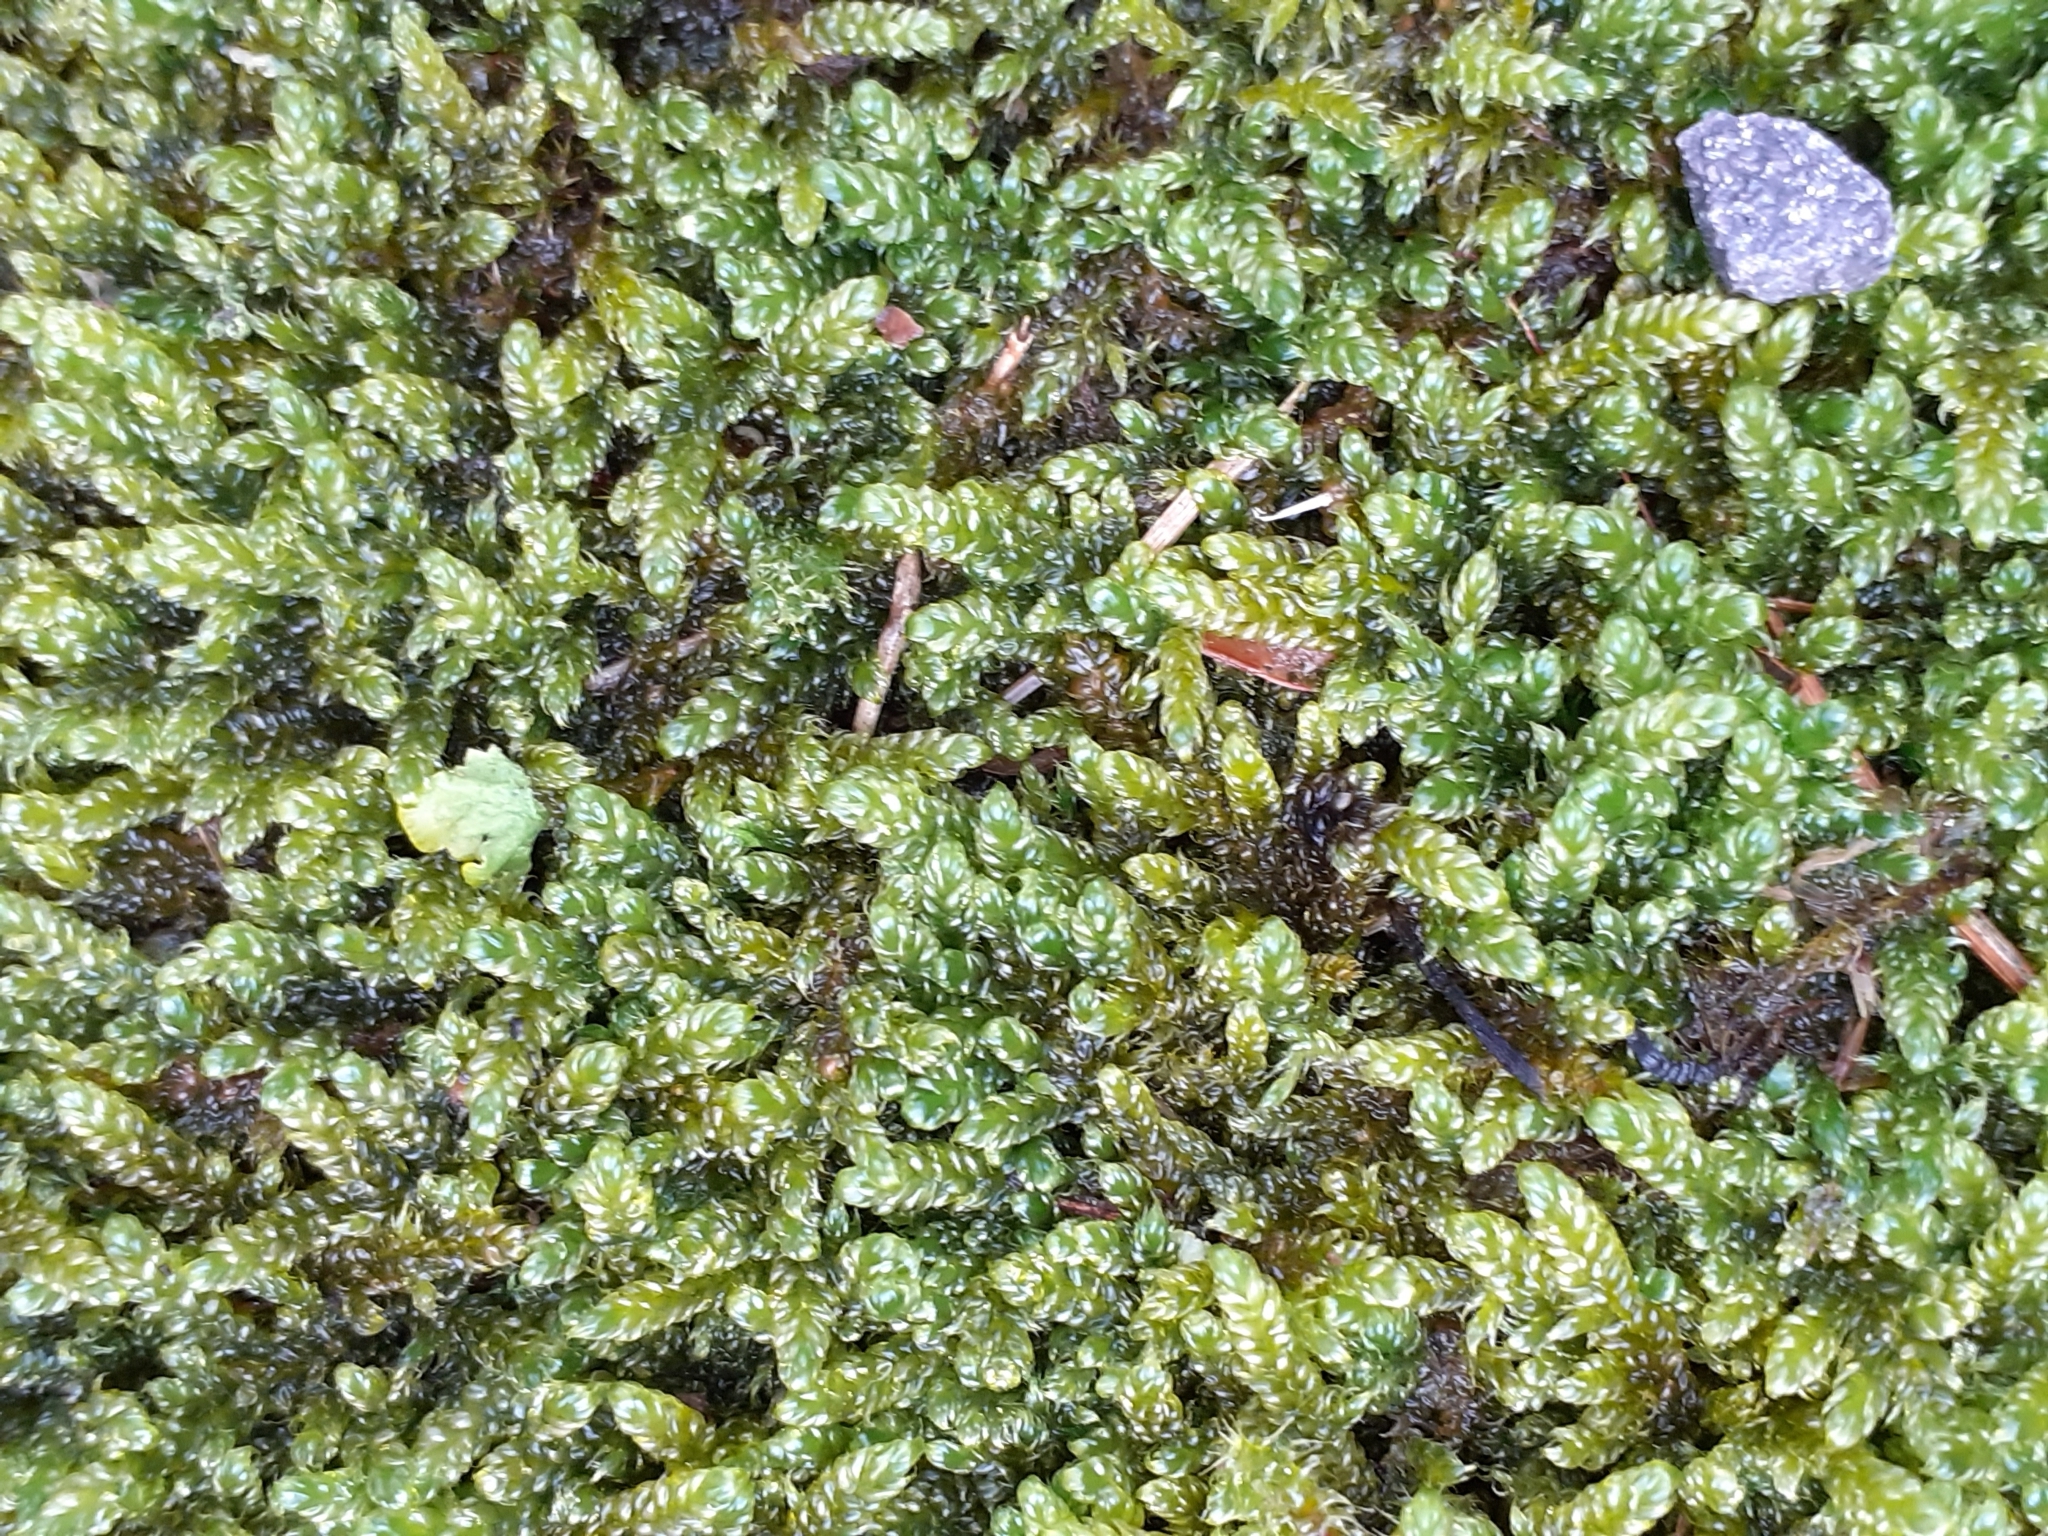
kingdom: Plantae
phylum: Bryophyta
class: Bryopsida
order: Hypnales
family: Hypnaceae
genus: Hypnum
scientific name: Hypnum cupressiforme
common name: Cypress-leaved plait-moss
